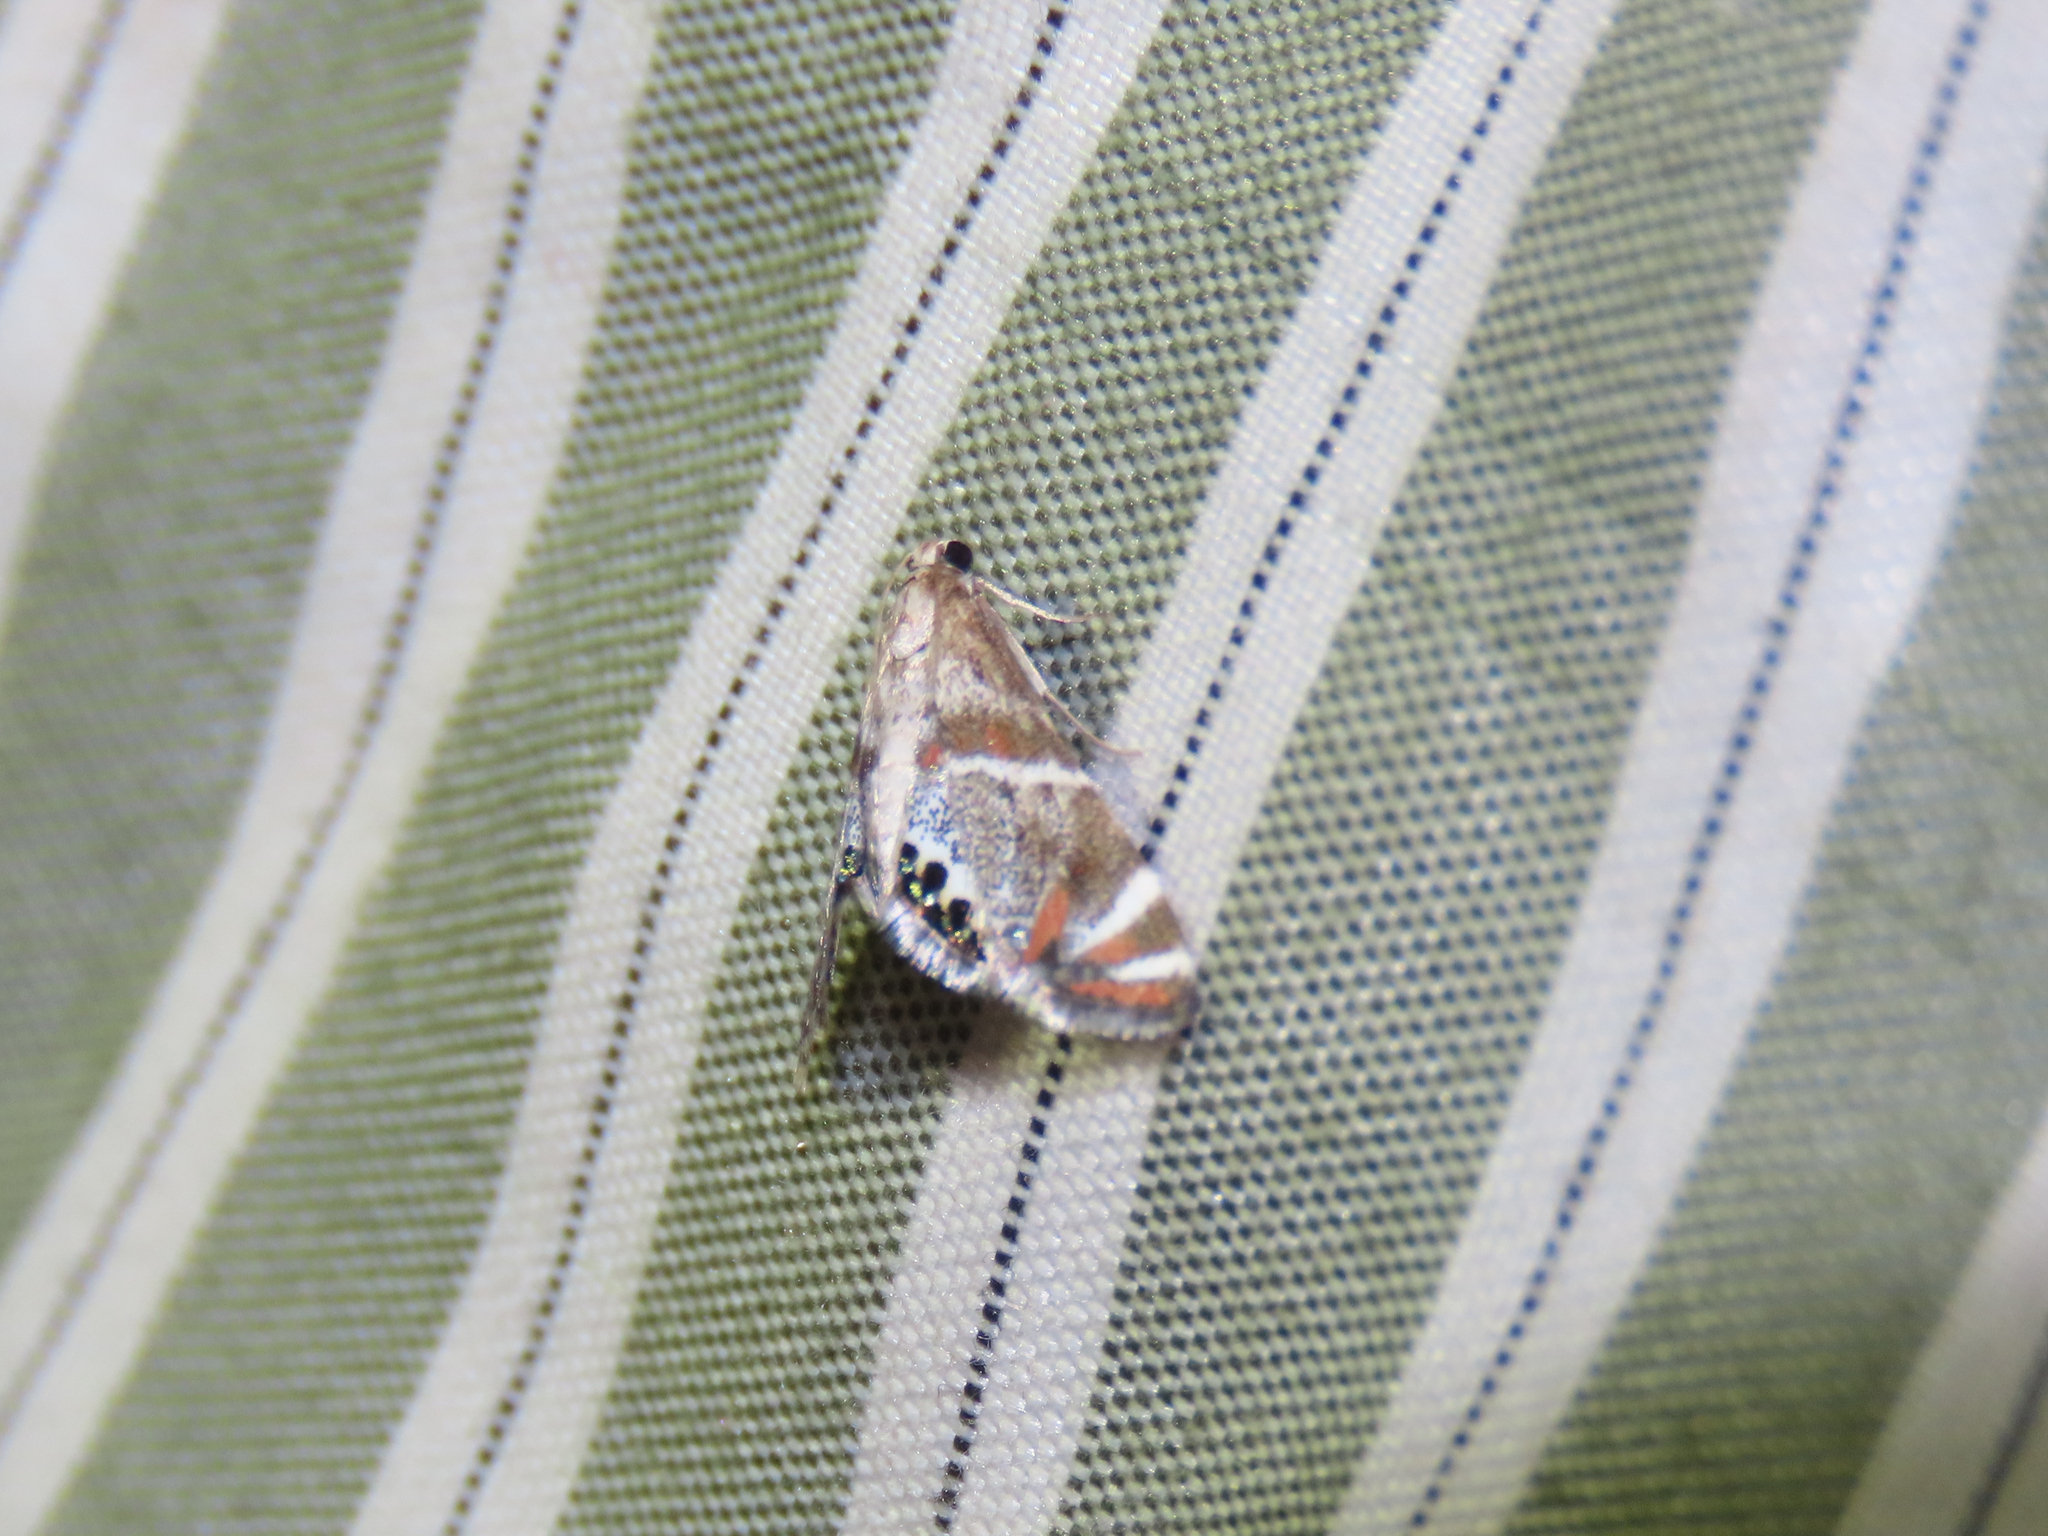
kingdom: Animalia
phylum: Arthropoda
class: Insecta
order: Lepidoptera
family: Crambidae
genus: Petrophila
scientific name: Petrophila jaliscalis
